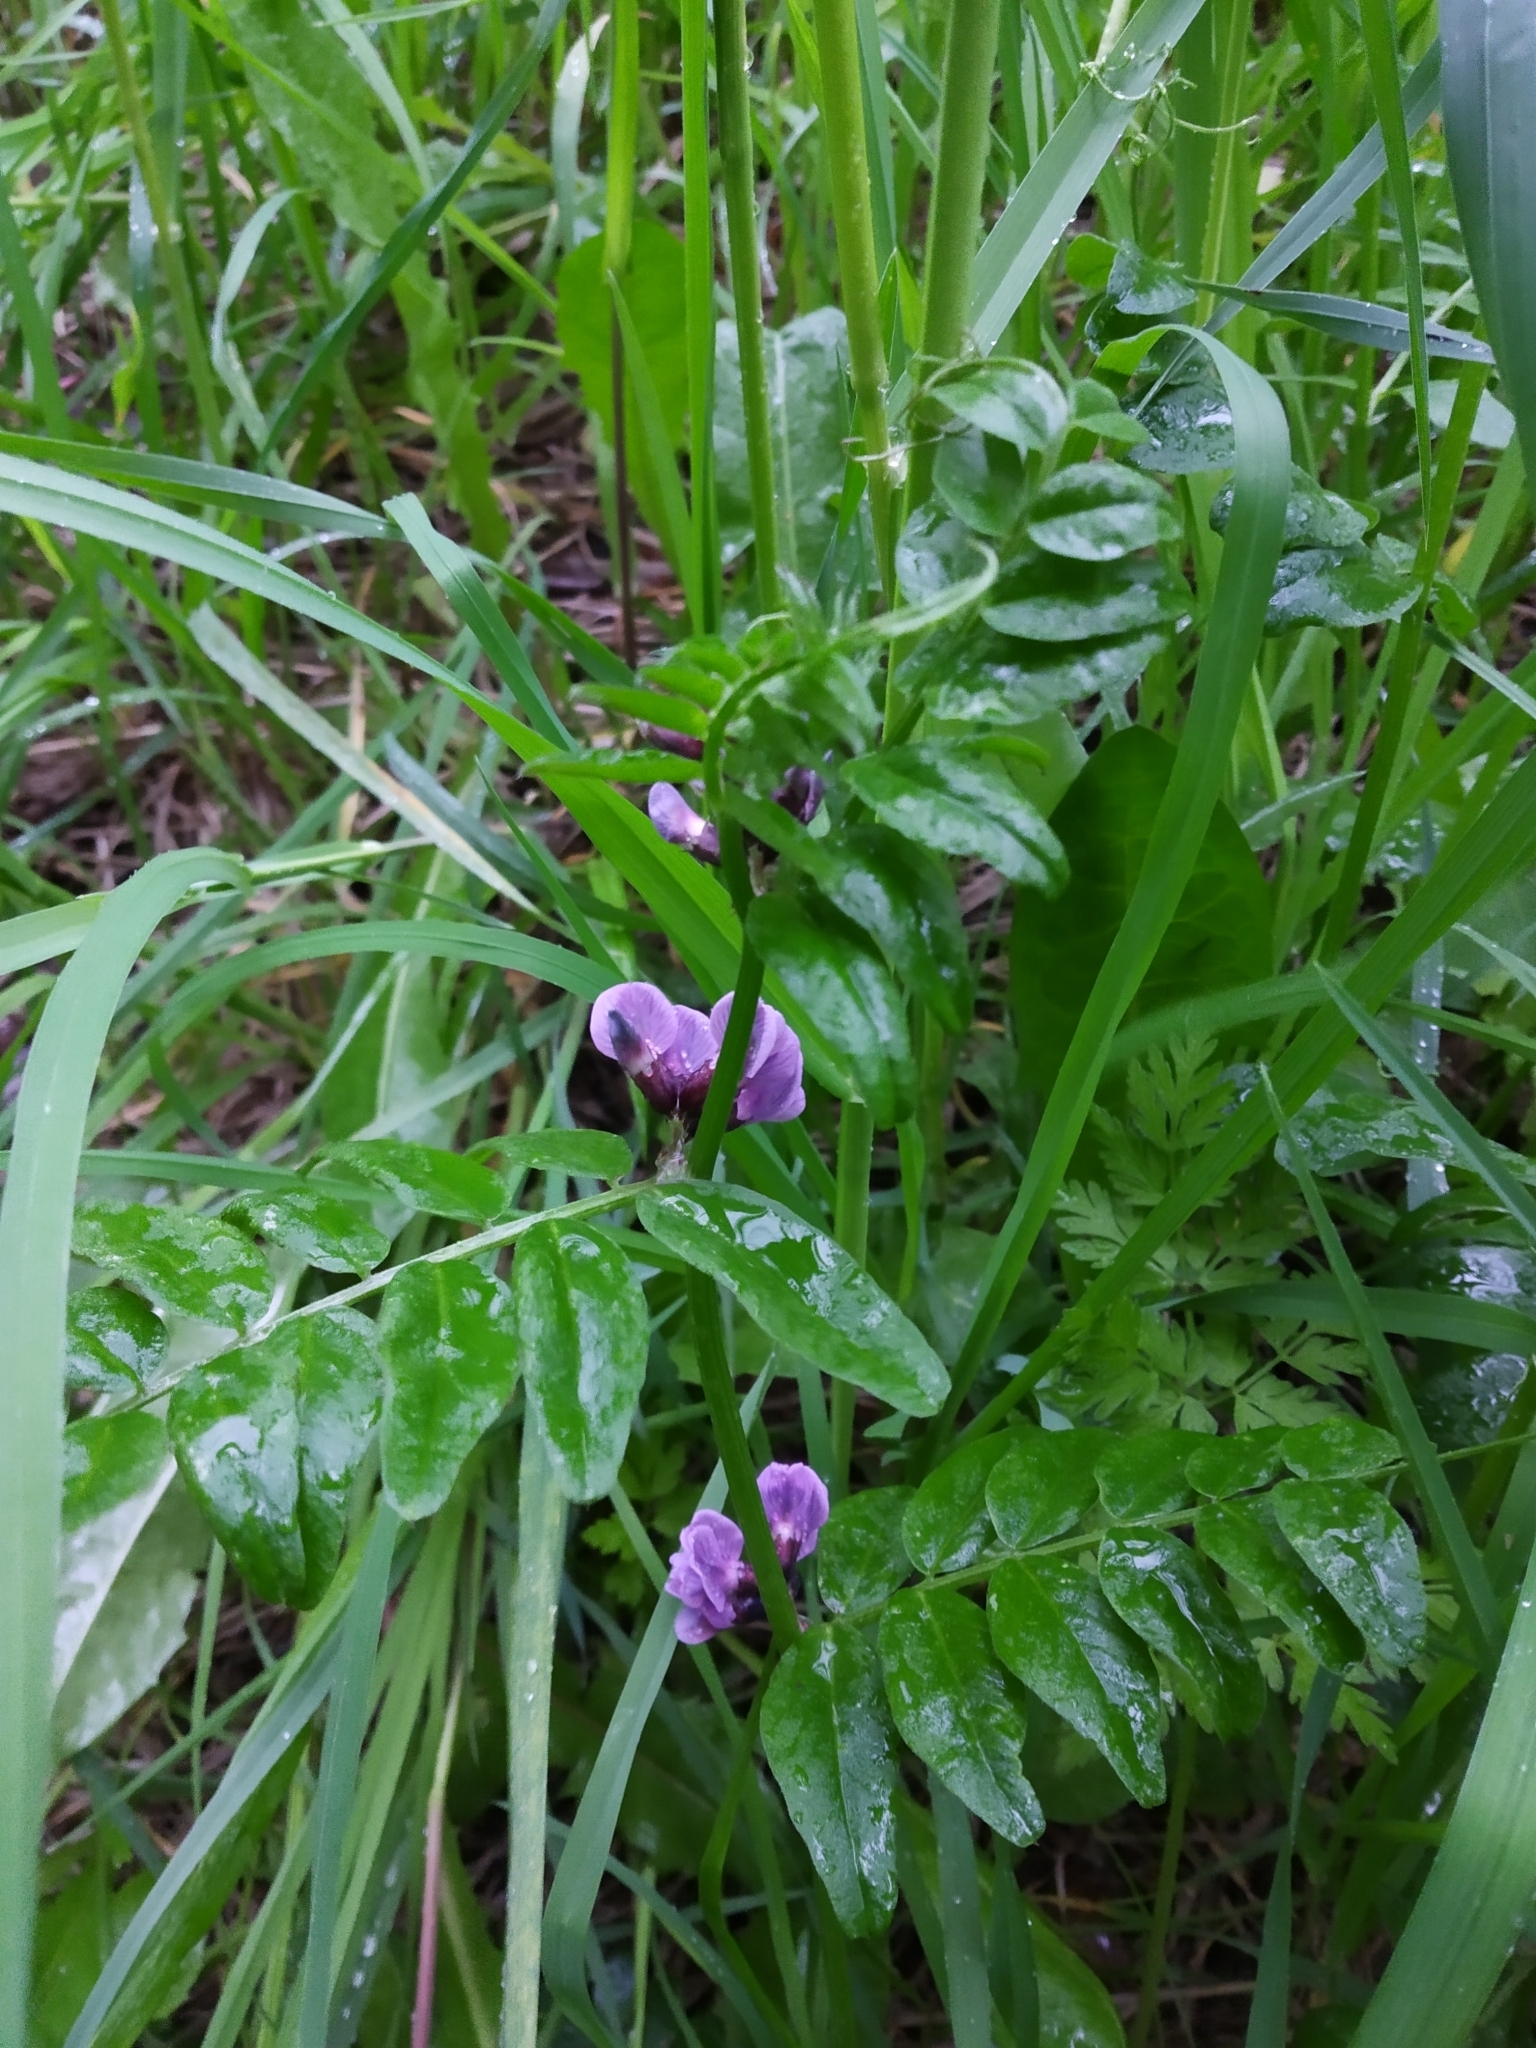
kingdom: Plantae
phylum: Tracheophyta
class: Magnoliopsida
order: Fabales
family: Fabaceae
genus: Vicia
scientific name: Vicia sepium
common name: Bush vetch
